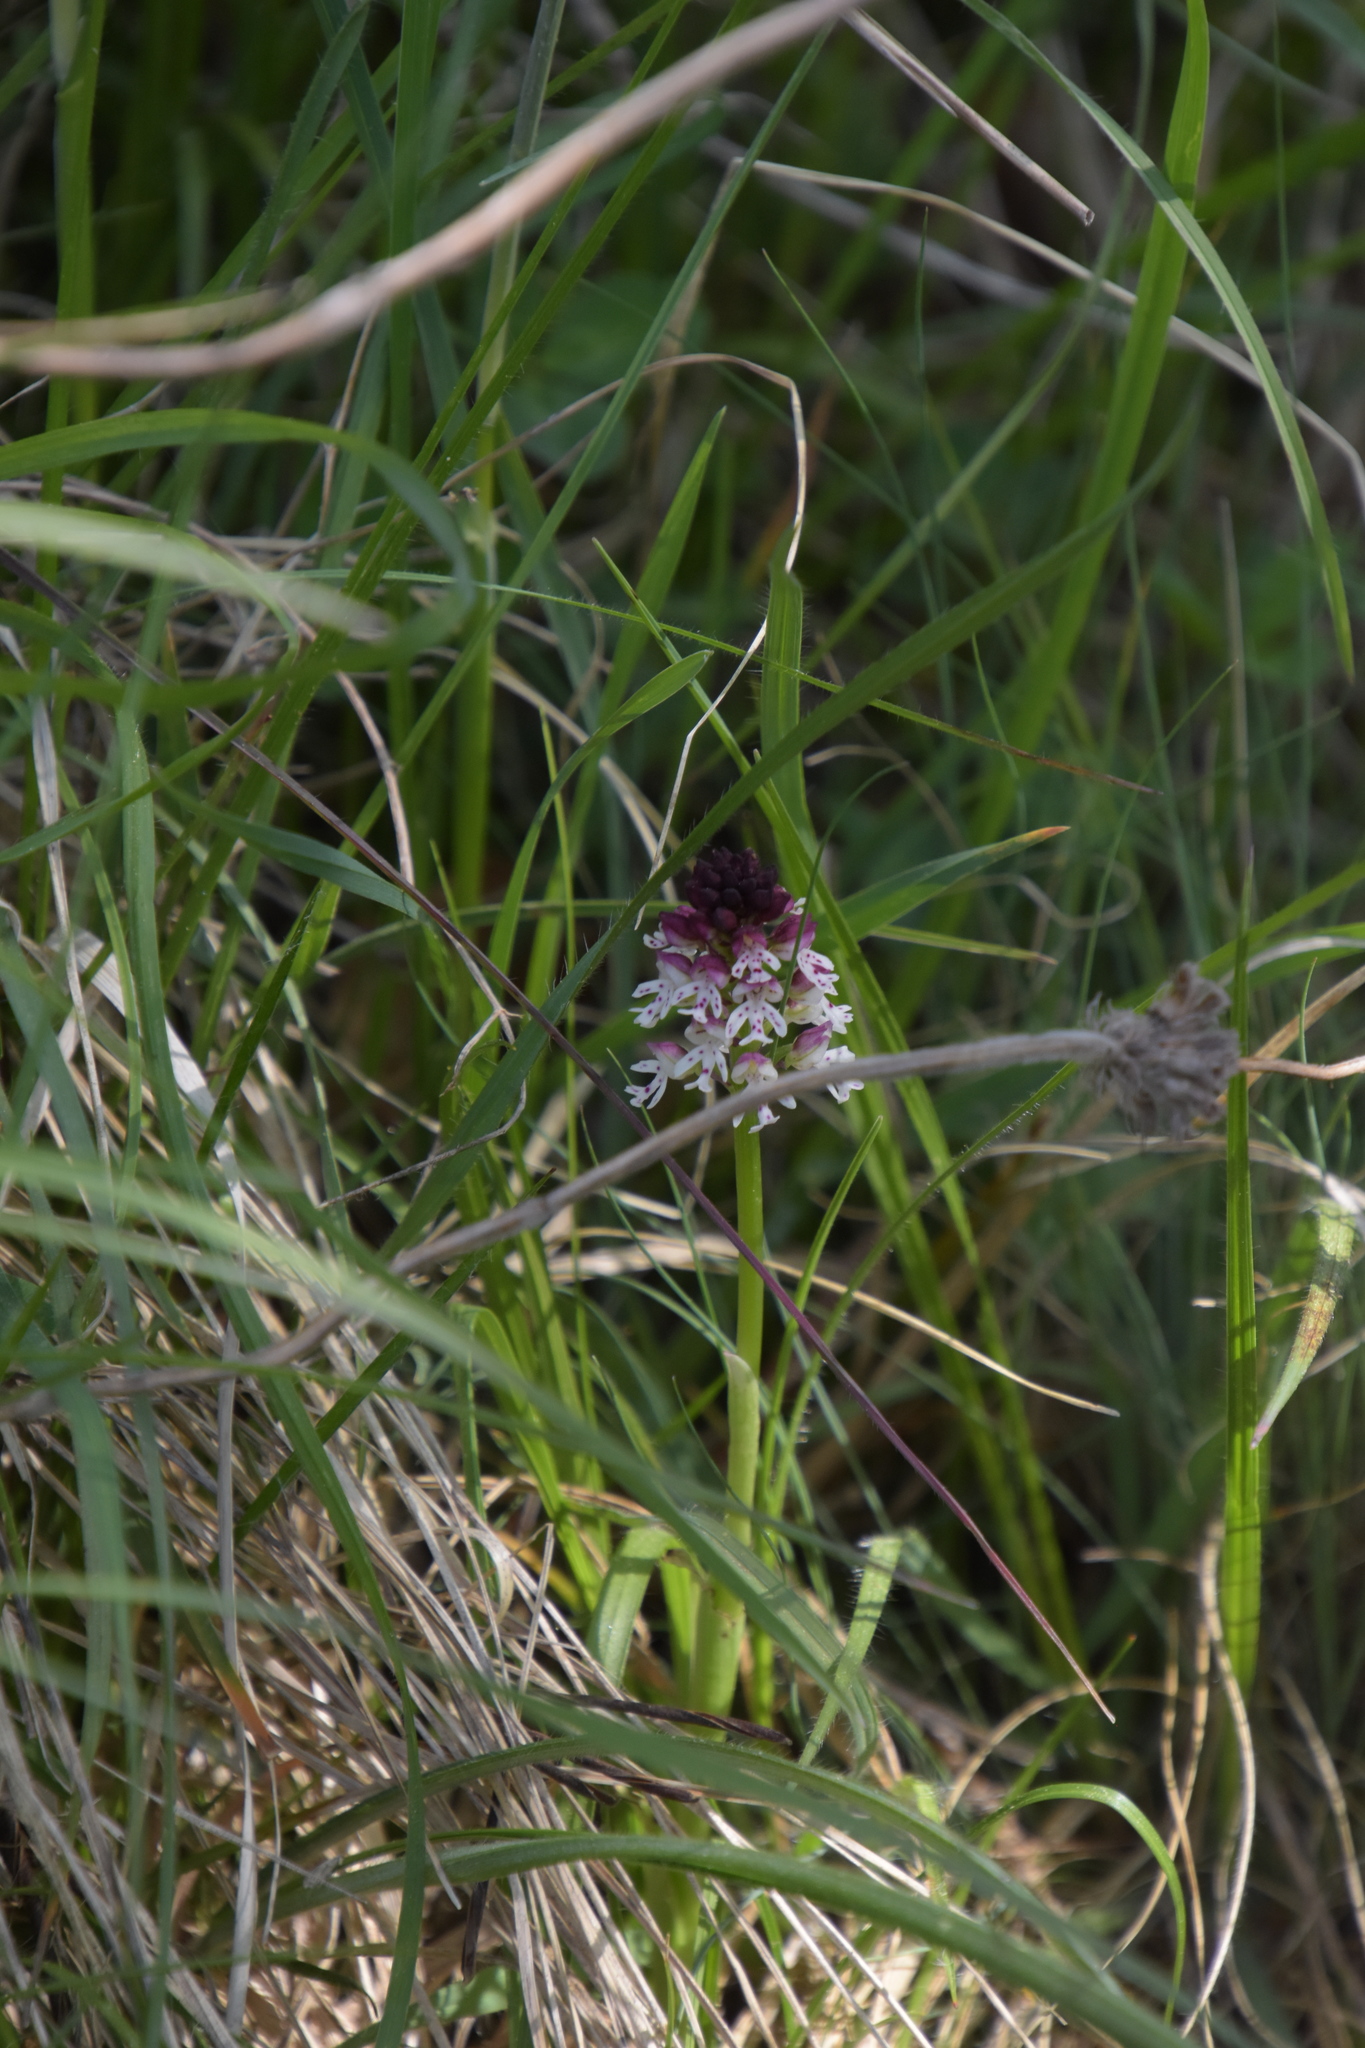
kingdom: Plantae
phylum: Tracheophyta
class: Liliopsida
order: Asparagales
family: Orchidaceae
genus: Neotinea
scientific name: Neotinea ustulata
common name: Burnt orchid
